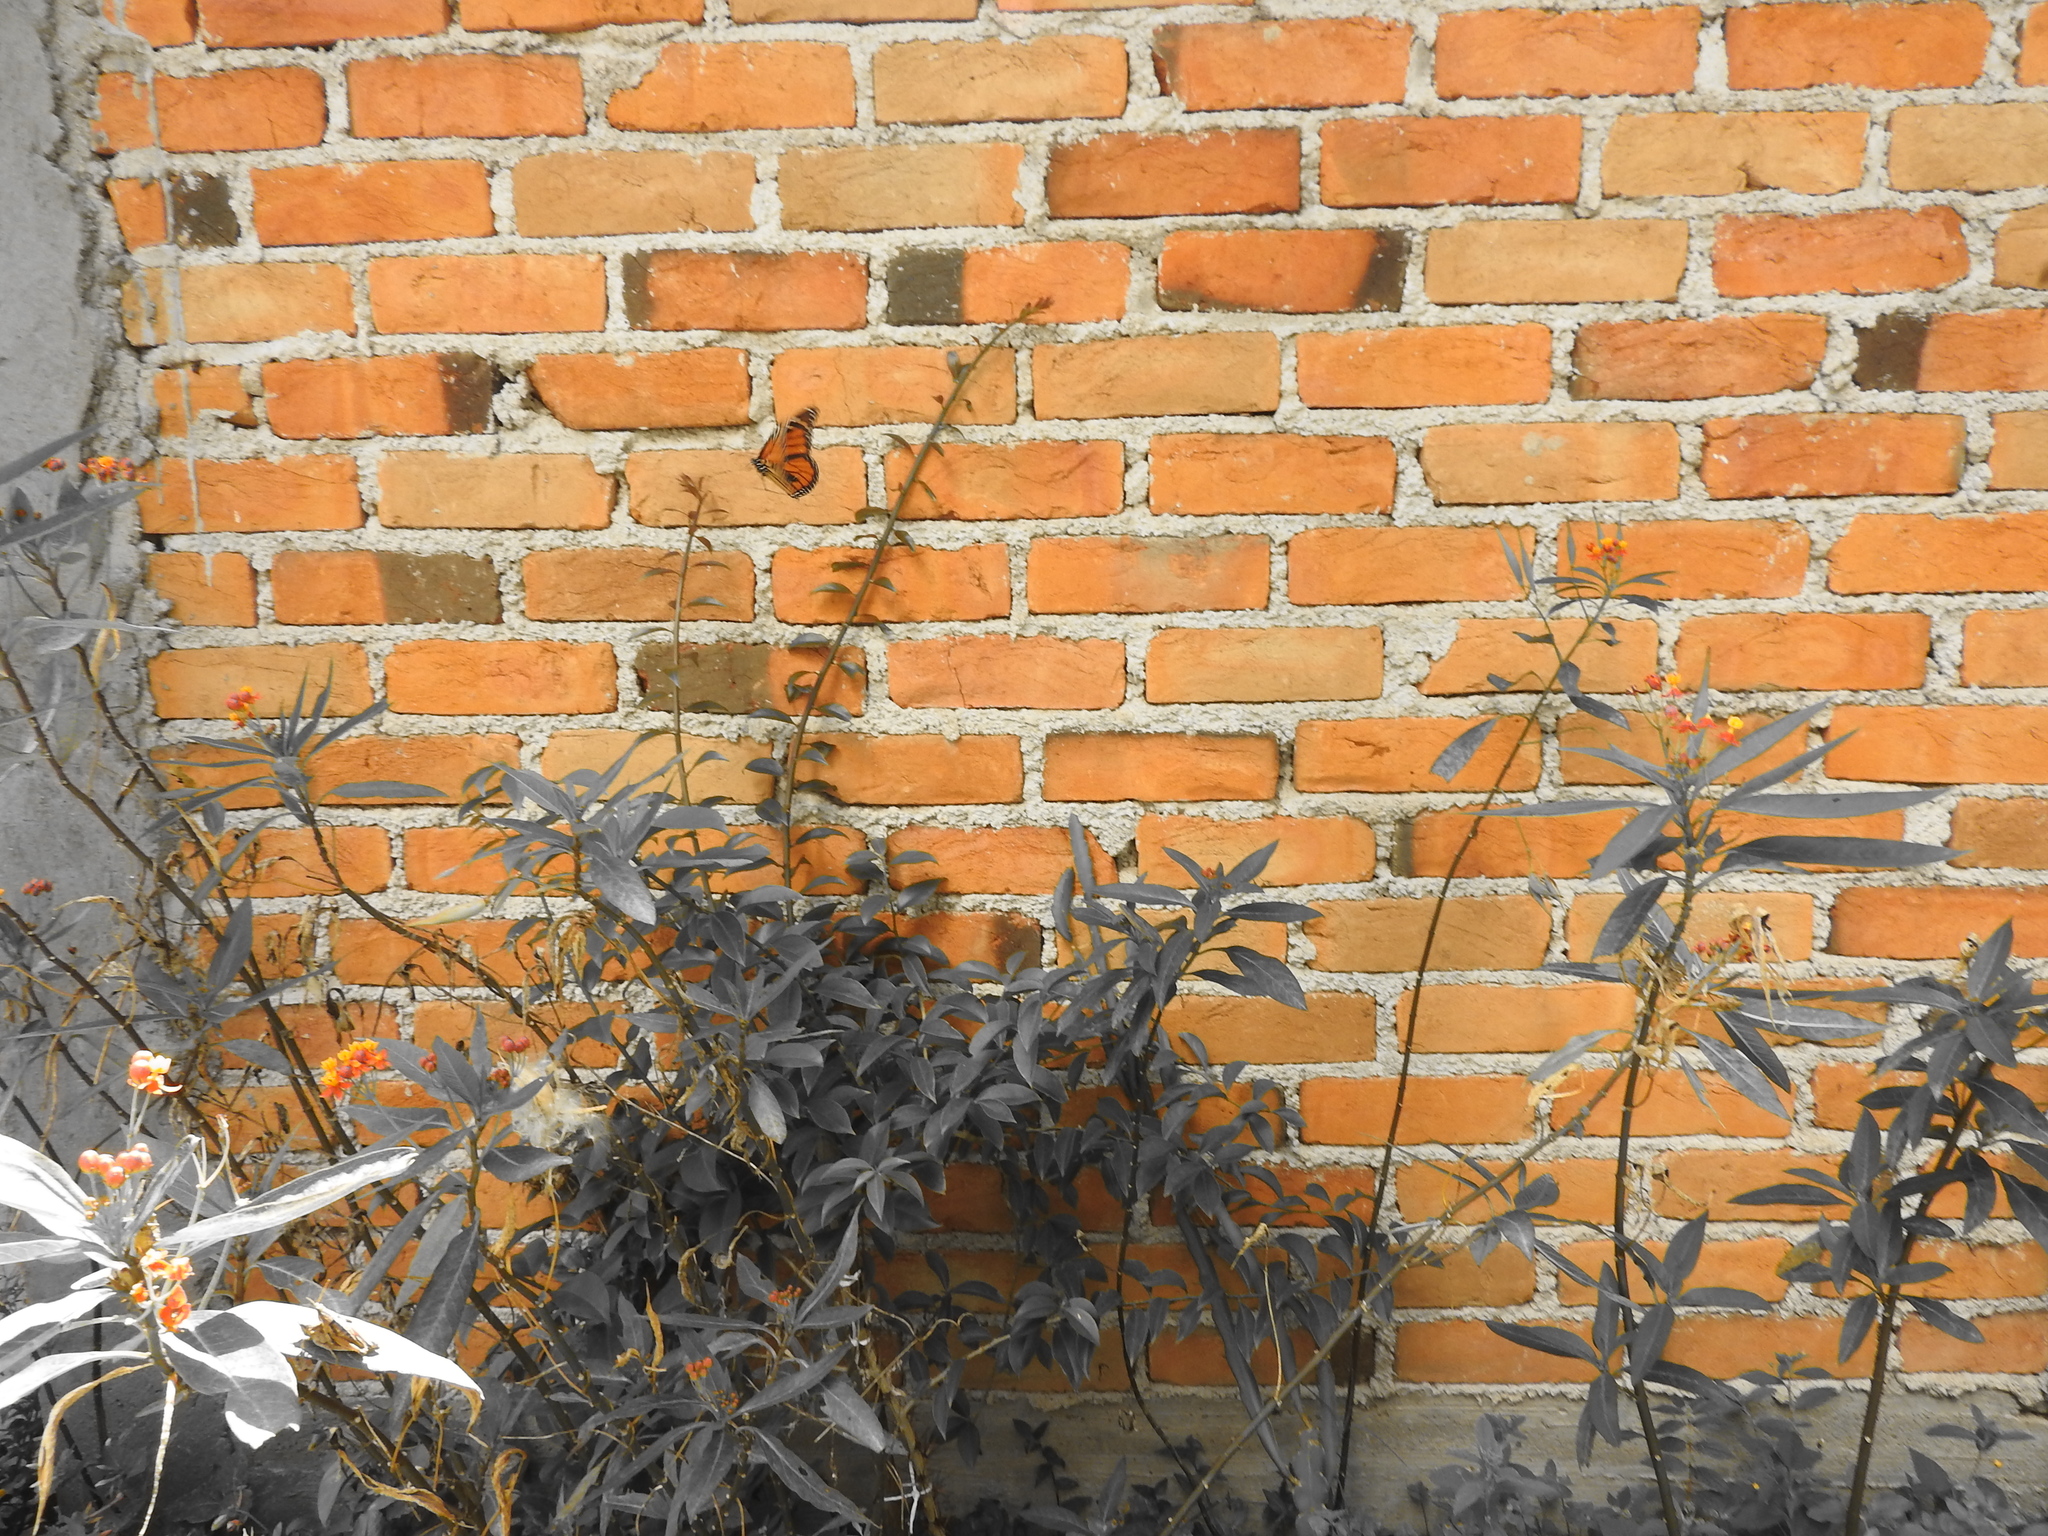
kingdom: Animalia
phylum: Arthropoda
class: Insecta
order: Lepidoptera
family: Nymphalidae
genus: Danaus
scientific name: Danaus plexippus
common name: Monarch
